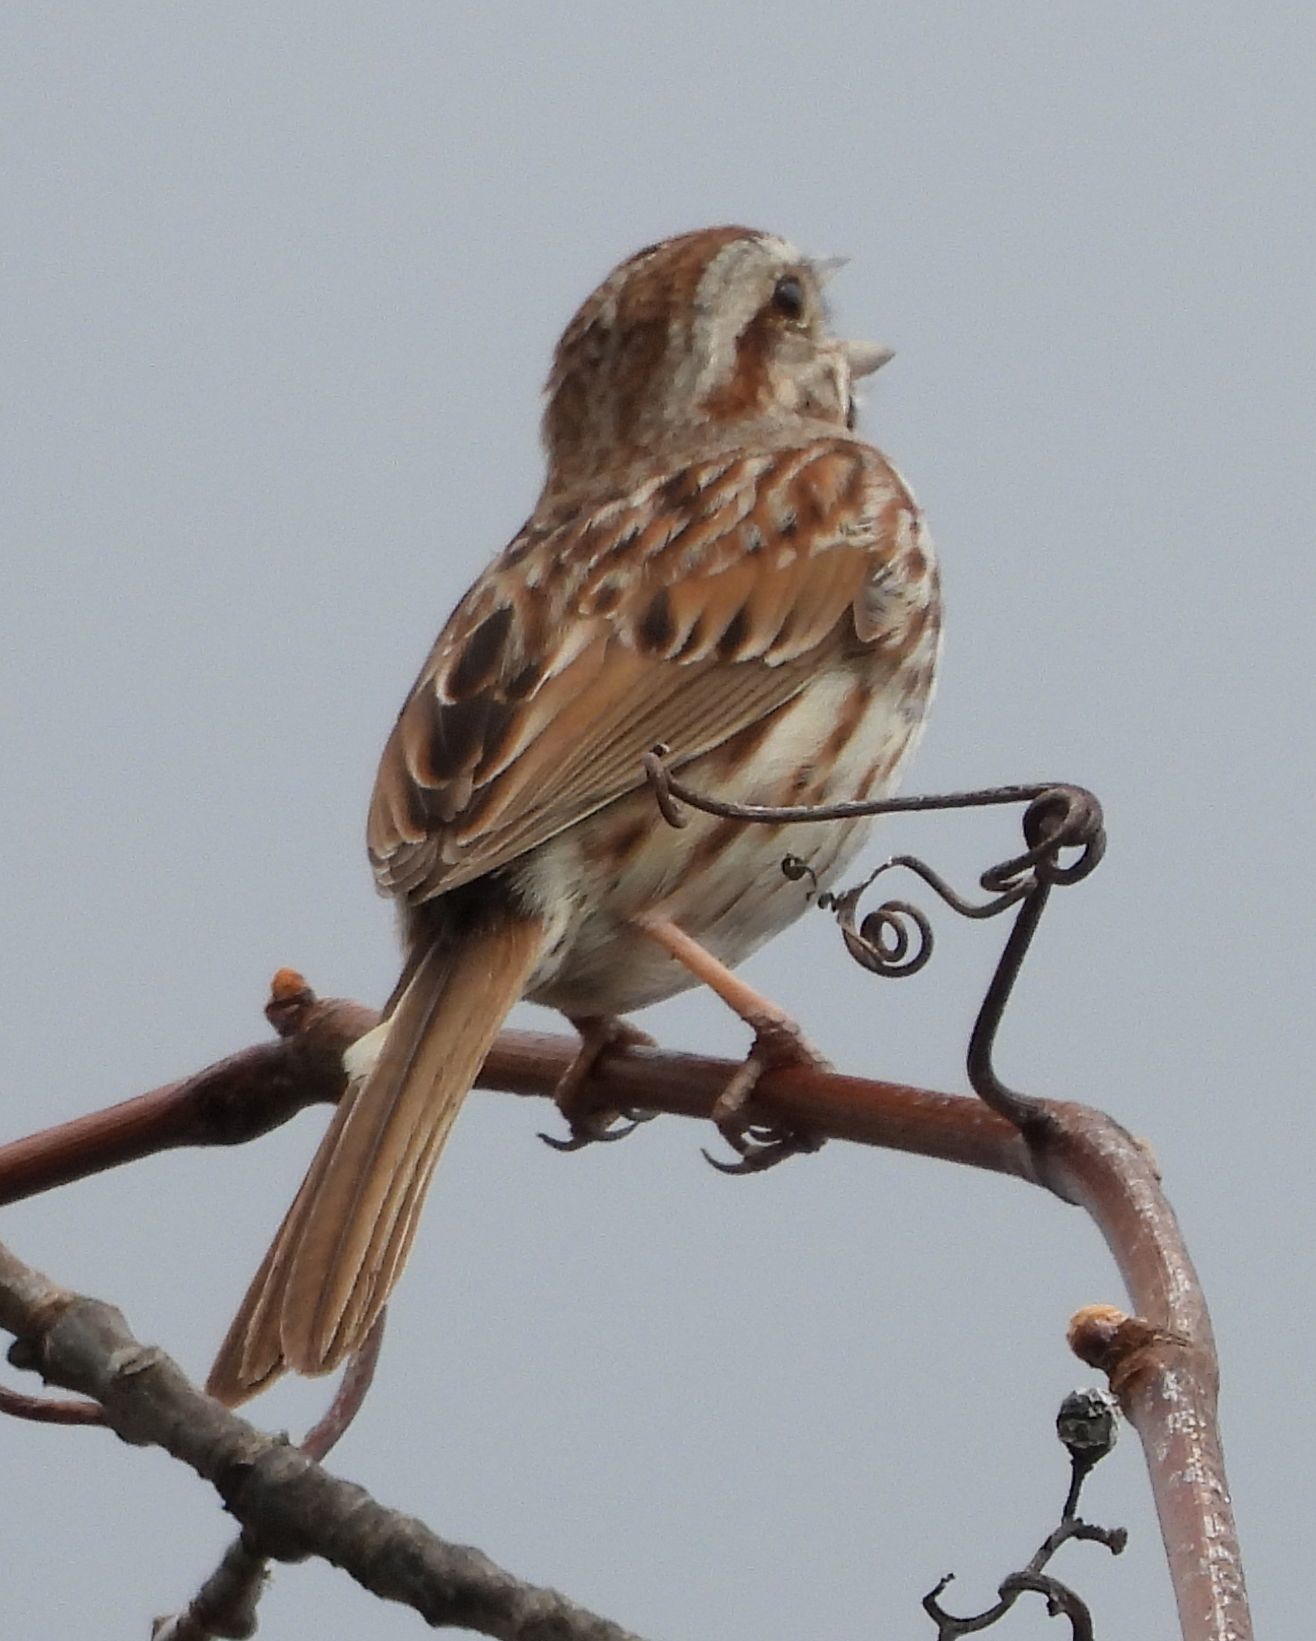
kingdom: Animalia
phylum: Chordata
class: Aves
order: Passeriformes
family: Passerellidae
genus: Melospiza
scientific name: Melospiza melodia
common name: Song sparrow
